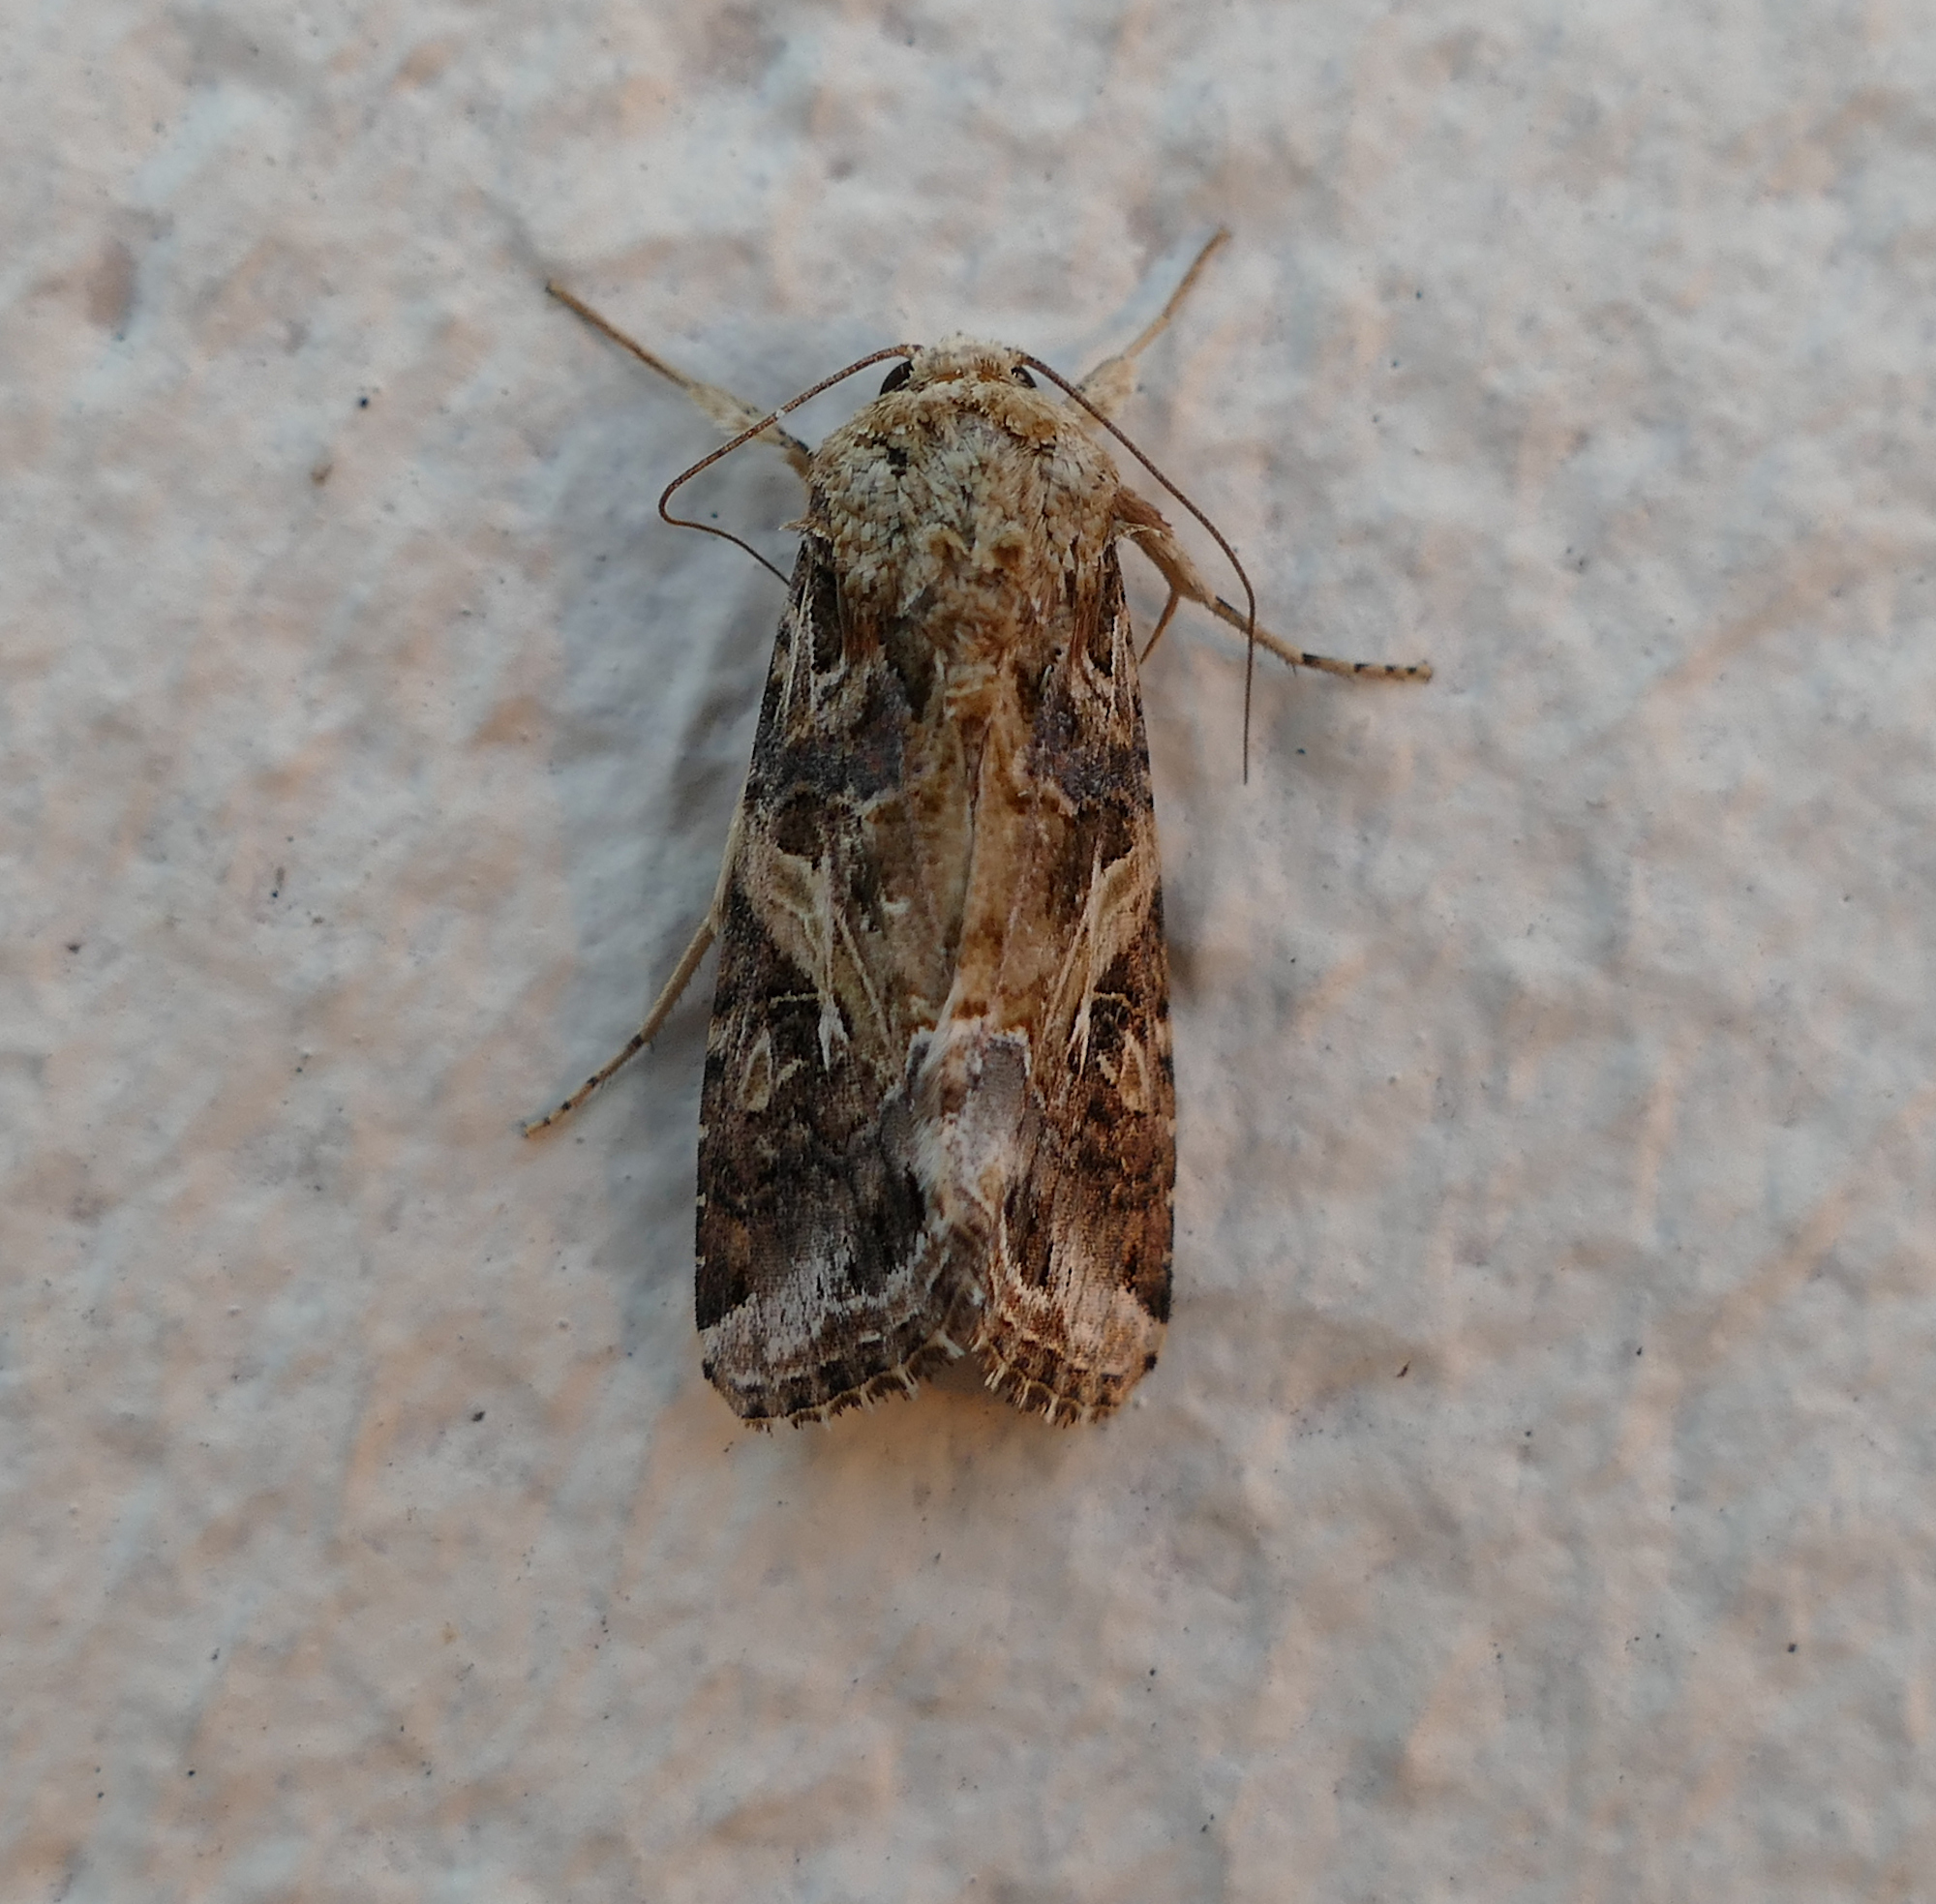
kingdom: Animalia
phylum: Arthropoda
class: Insecta
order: Lepidoptera
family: Noctuidae
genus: Spodoptera
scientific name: Spodoptera ornithogalli
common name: Yellow-striped armyworm
